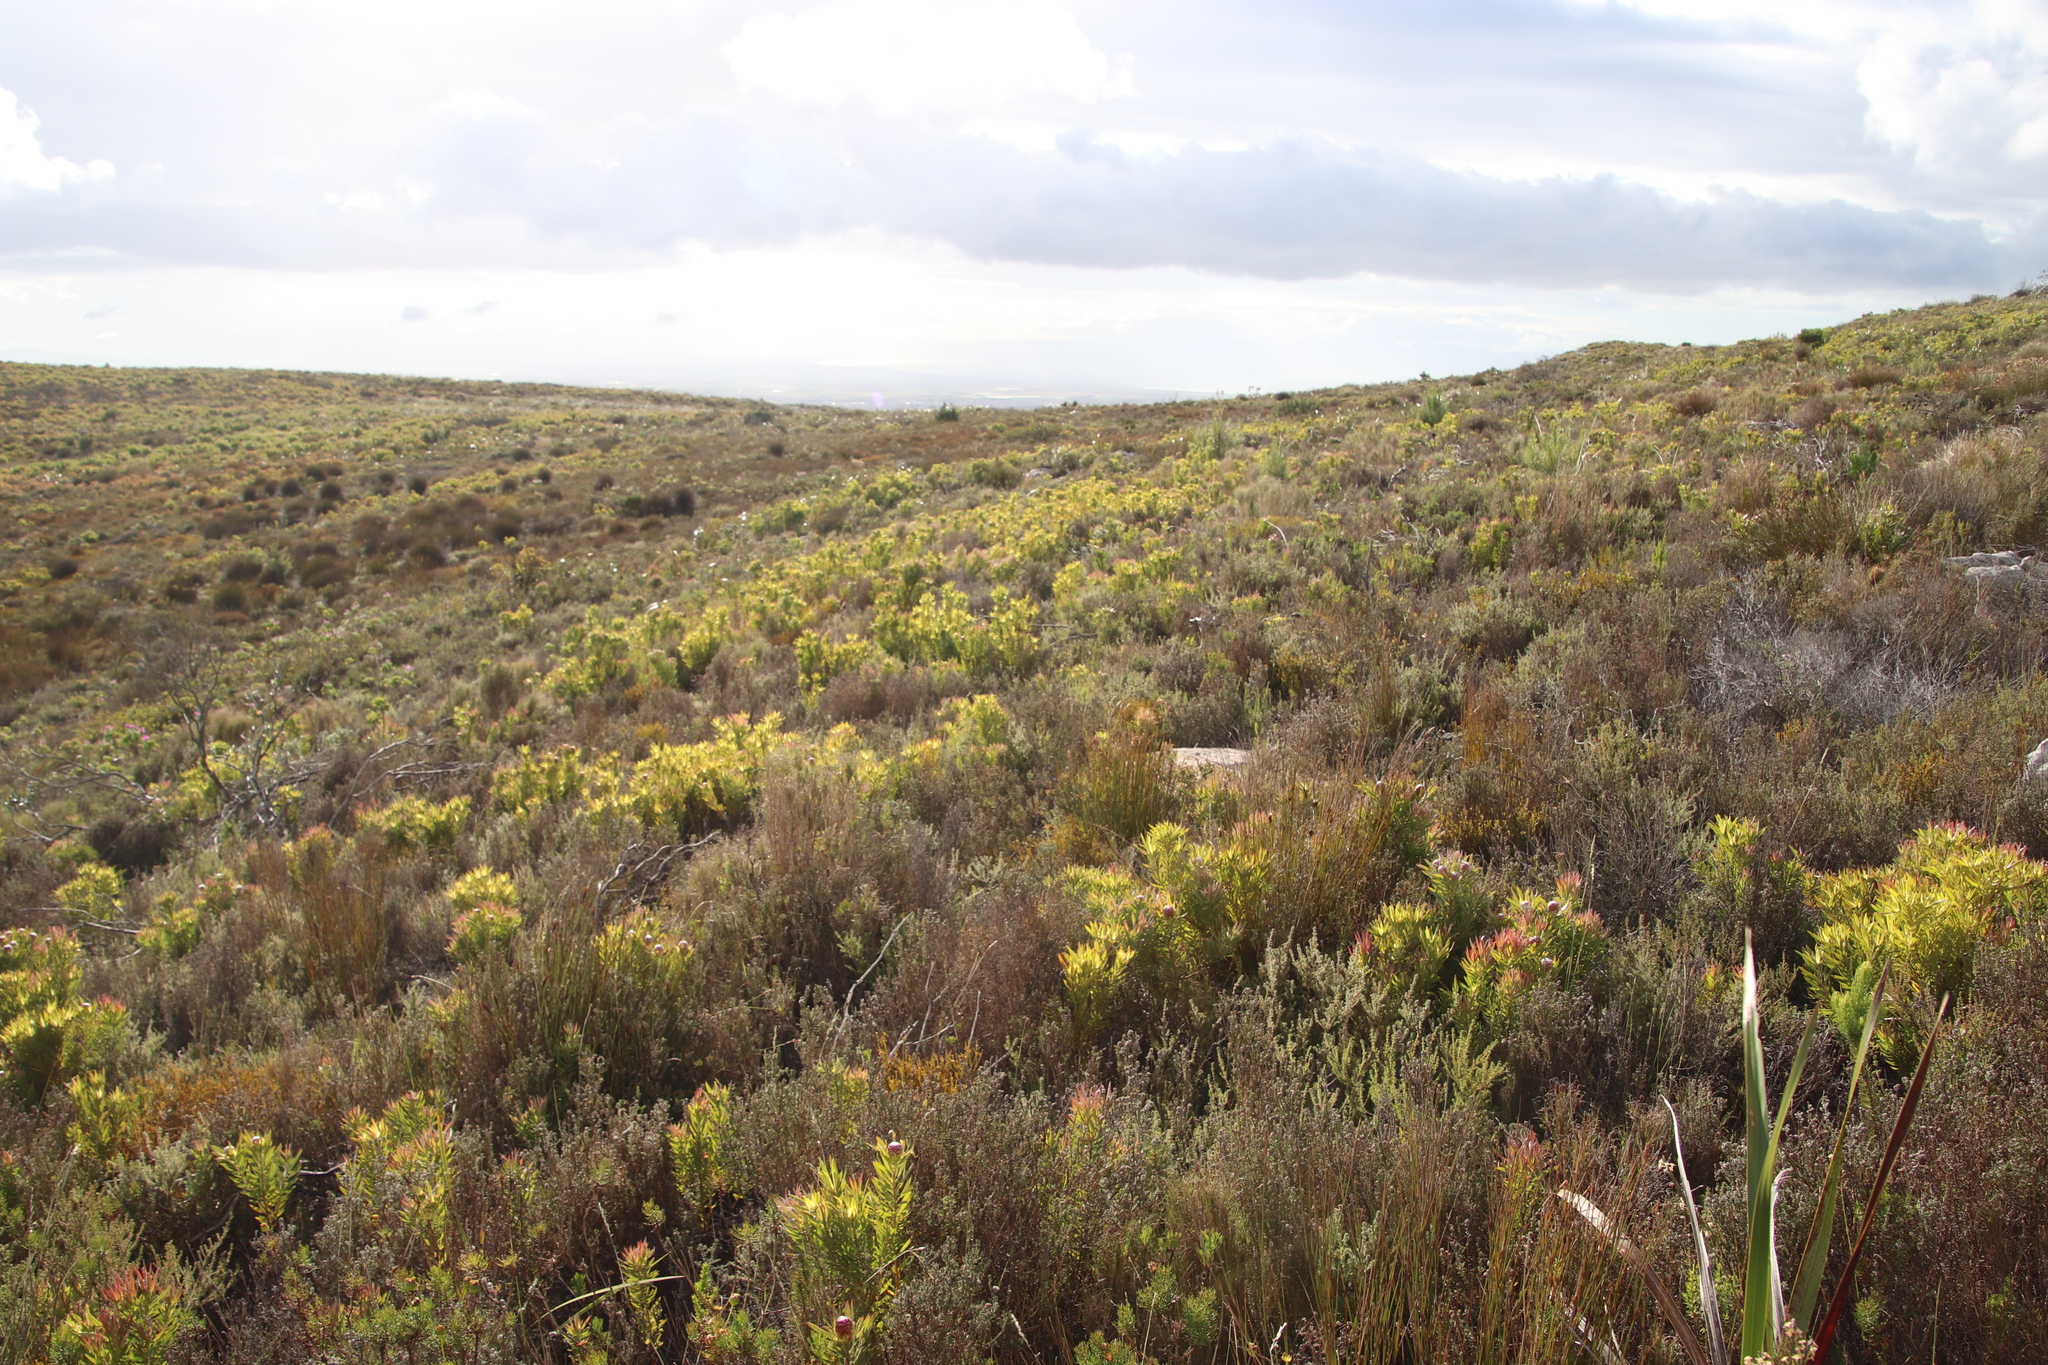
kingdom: Plantae
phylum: Tracheophyta
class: Magnoliopsida
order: Proteales
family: Proteaceae
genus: Leucadendron
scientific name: Leucadendron xanthoconus
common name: Sickle-leaf conebush
